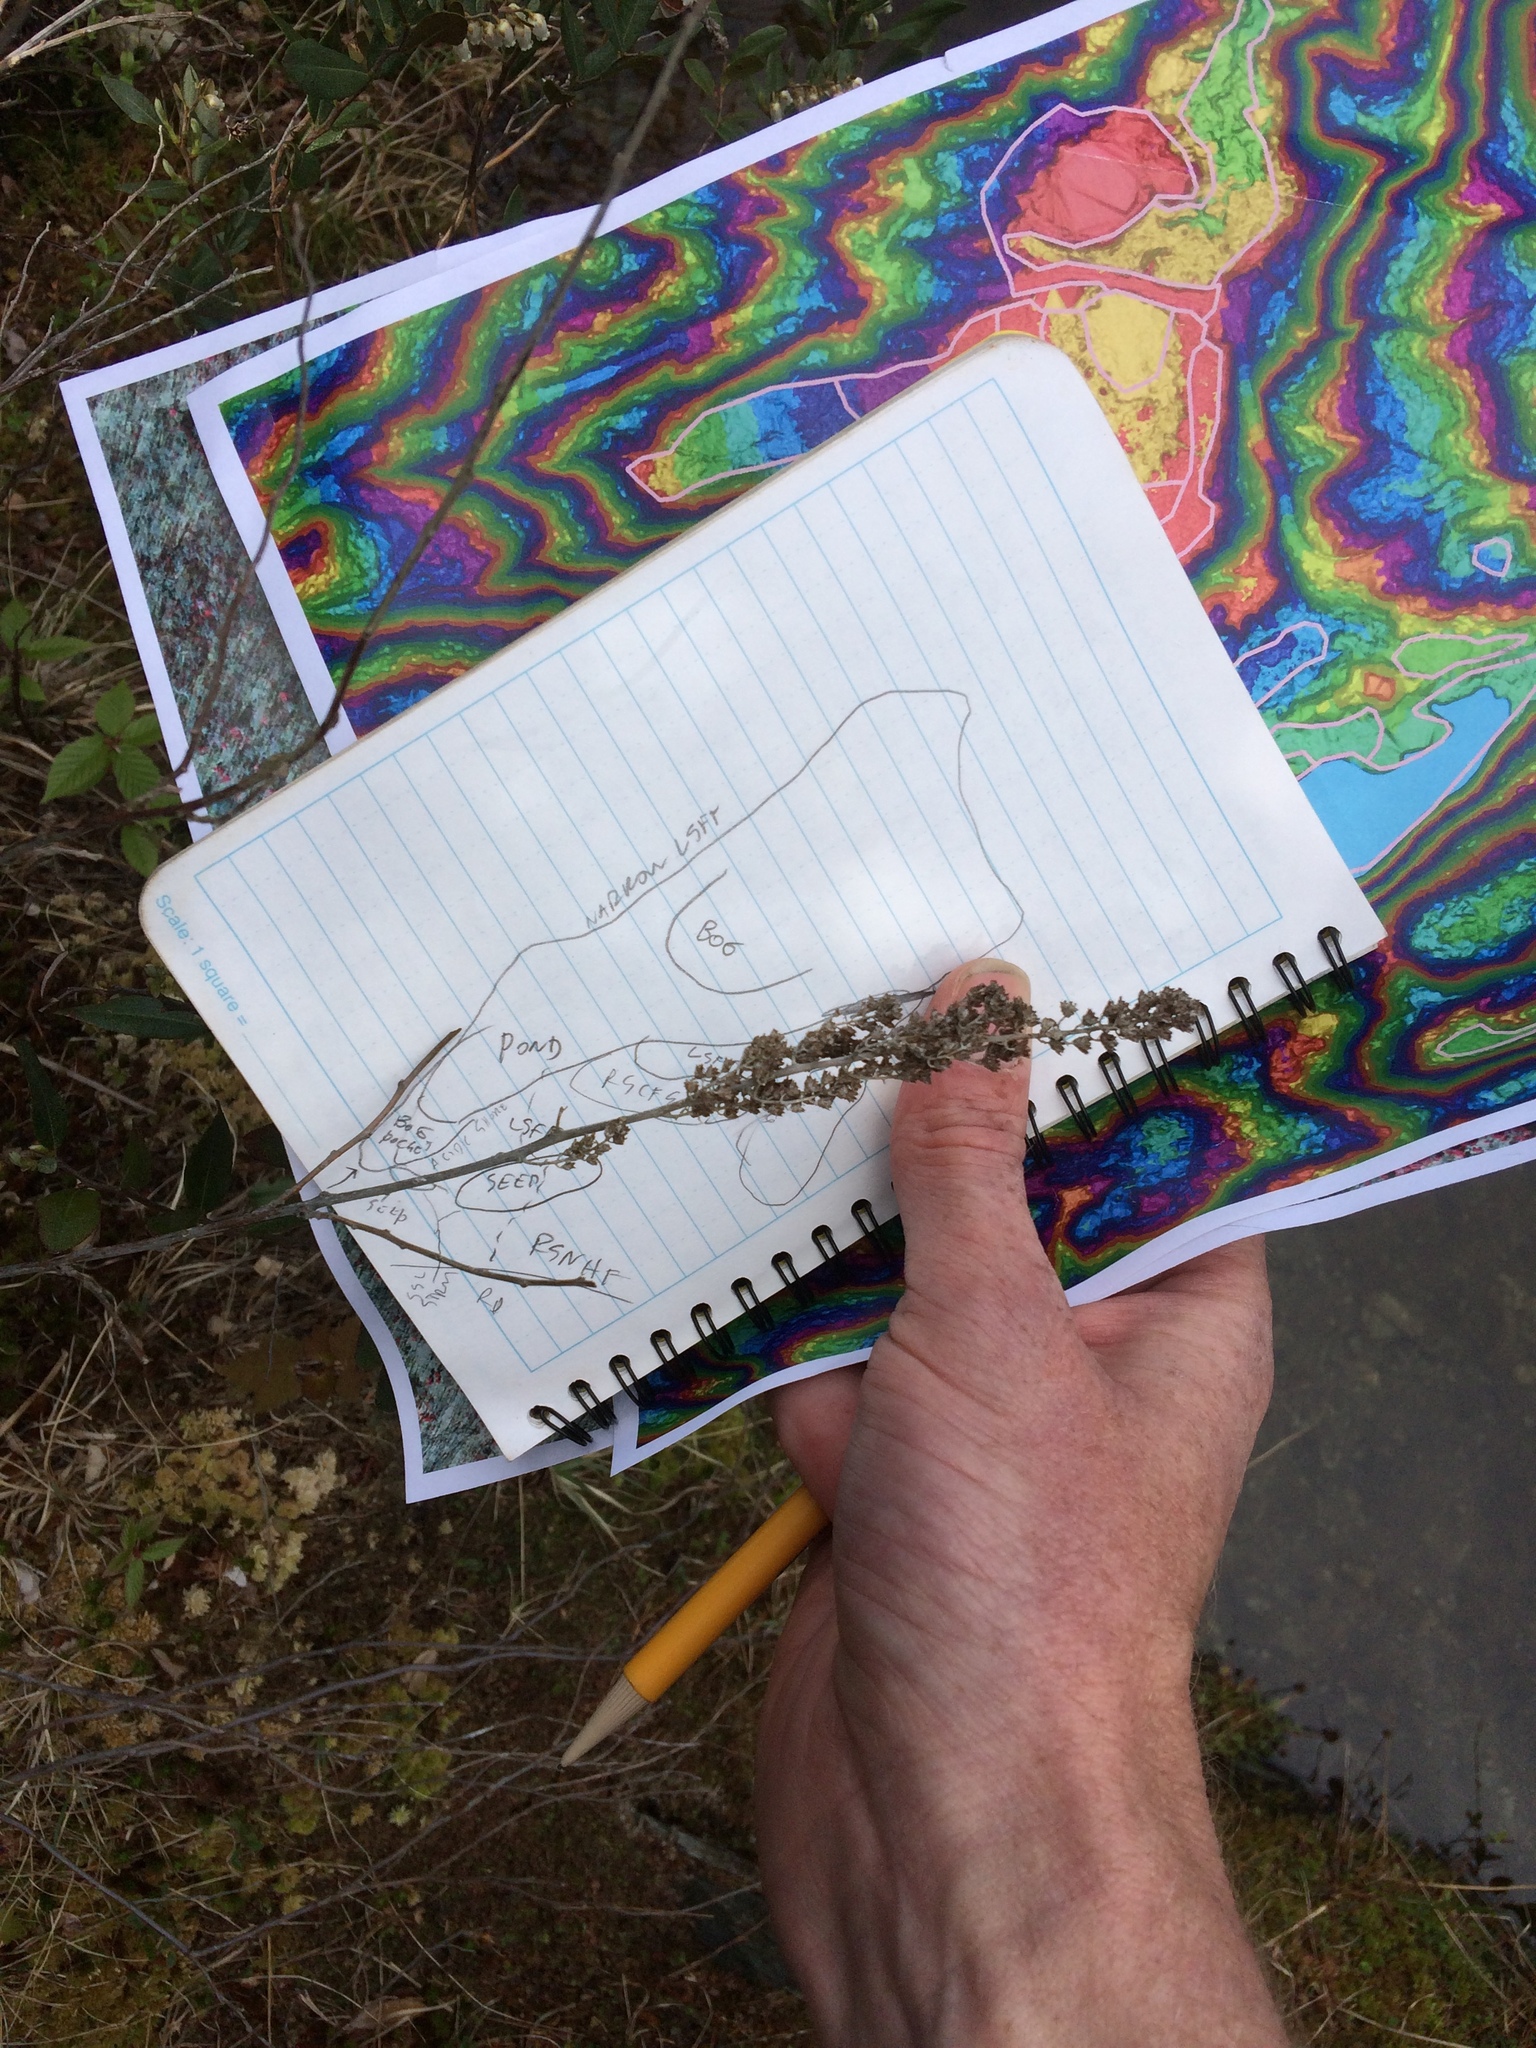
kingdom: Plantae
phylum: Tracheophyta
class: Magnoliopsida
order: Rosales
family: Rosaceae
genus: Spiraea
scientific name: Spiraea tomentosa
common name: Hardhack
